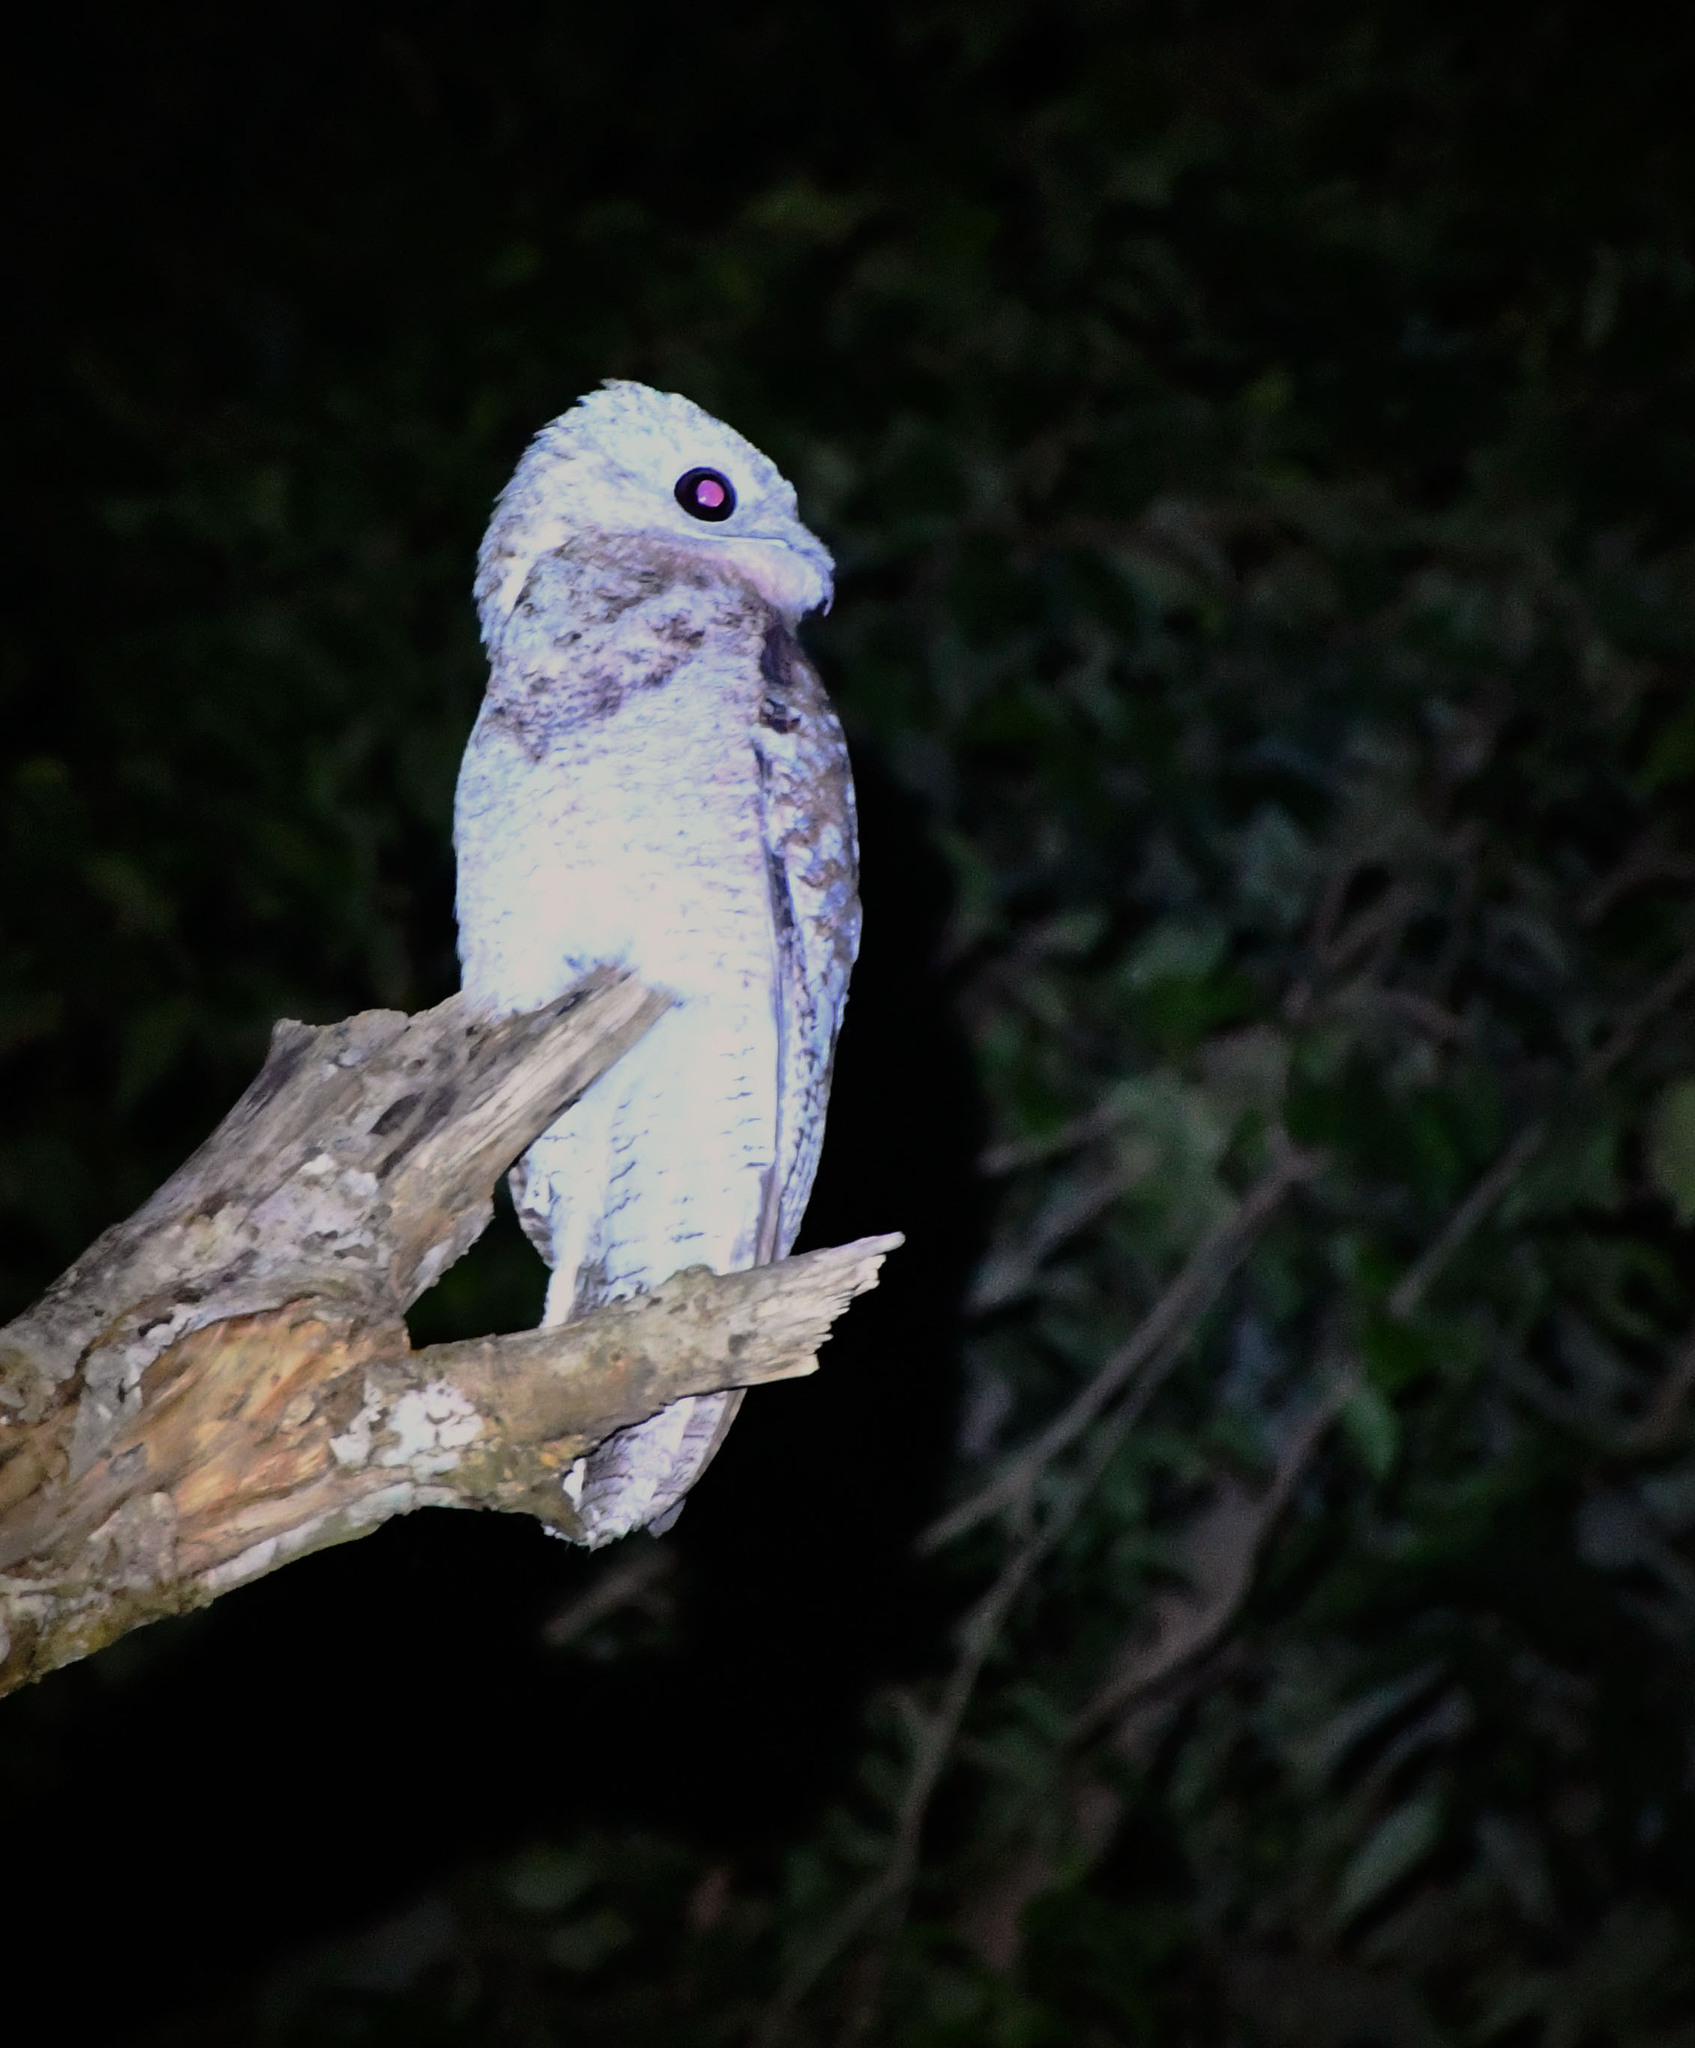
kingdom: Animalia
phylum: Chordata
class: Aves
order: Nyctibiiformes
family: Nyctibiidae
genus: Nyctibius
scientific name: Nyctibius grandis
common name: Great potoo
